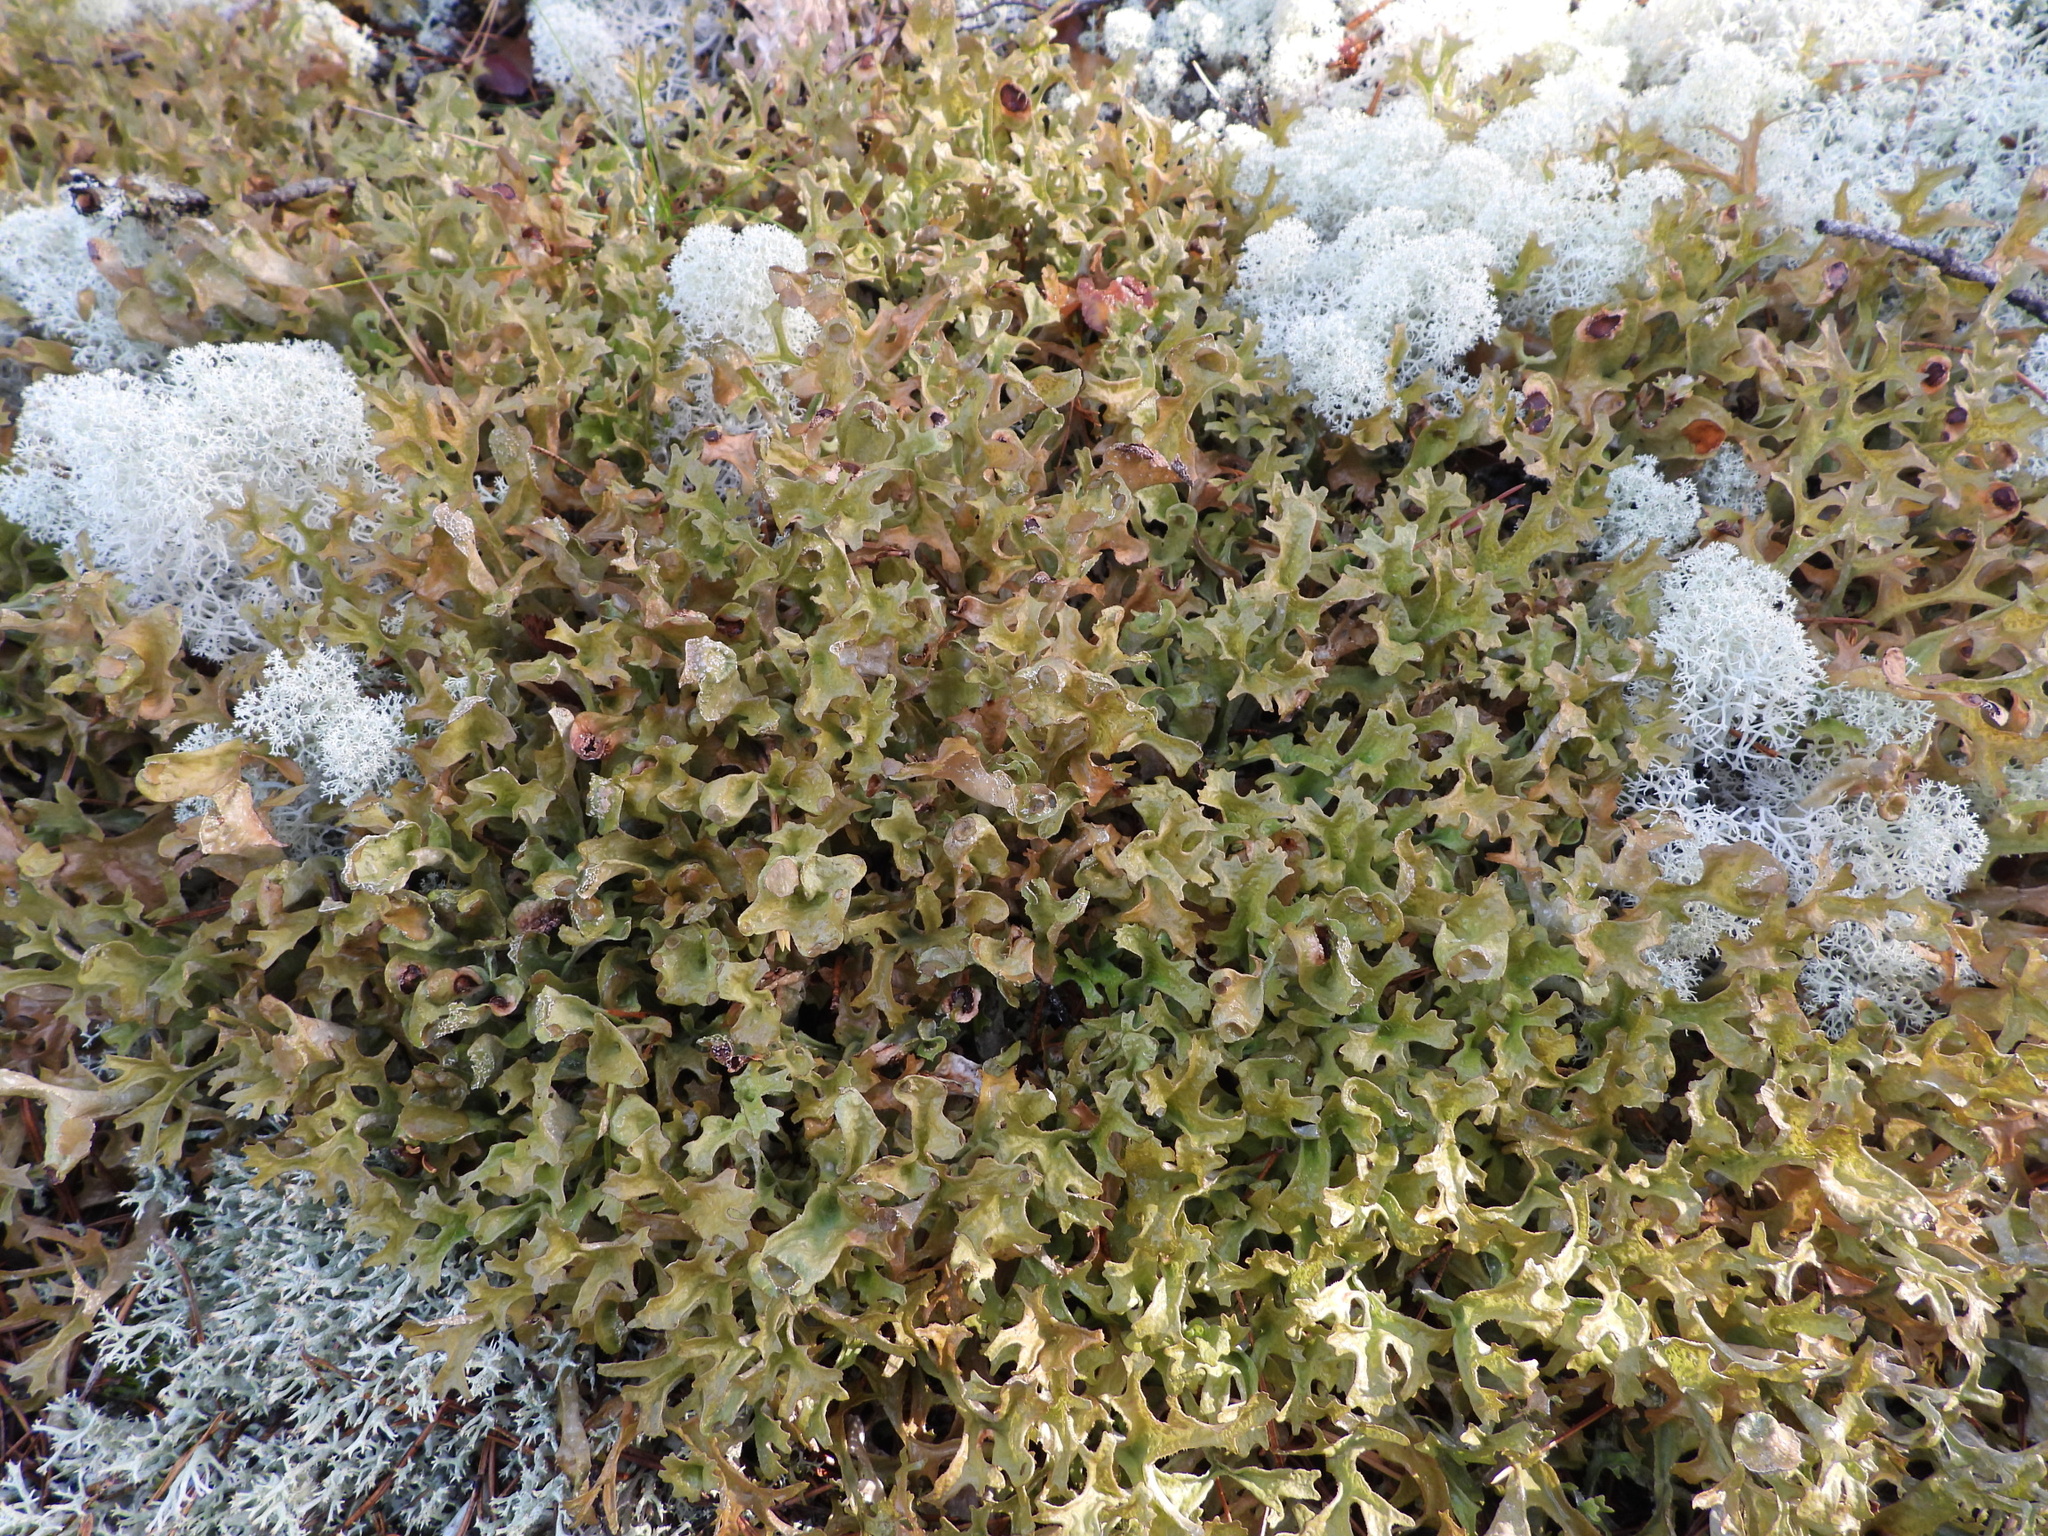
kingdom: Fungi
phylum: Ascomycota
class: Lecanoromycetes
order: Lecanorales
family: Parmeliaceae
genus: Cetraria
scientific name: Cetraria islandica
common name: Iceland lichen
